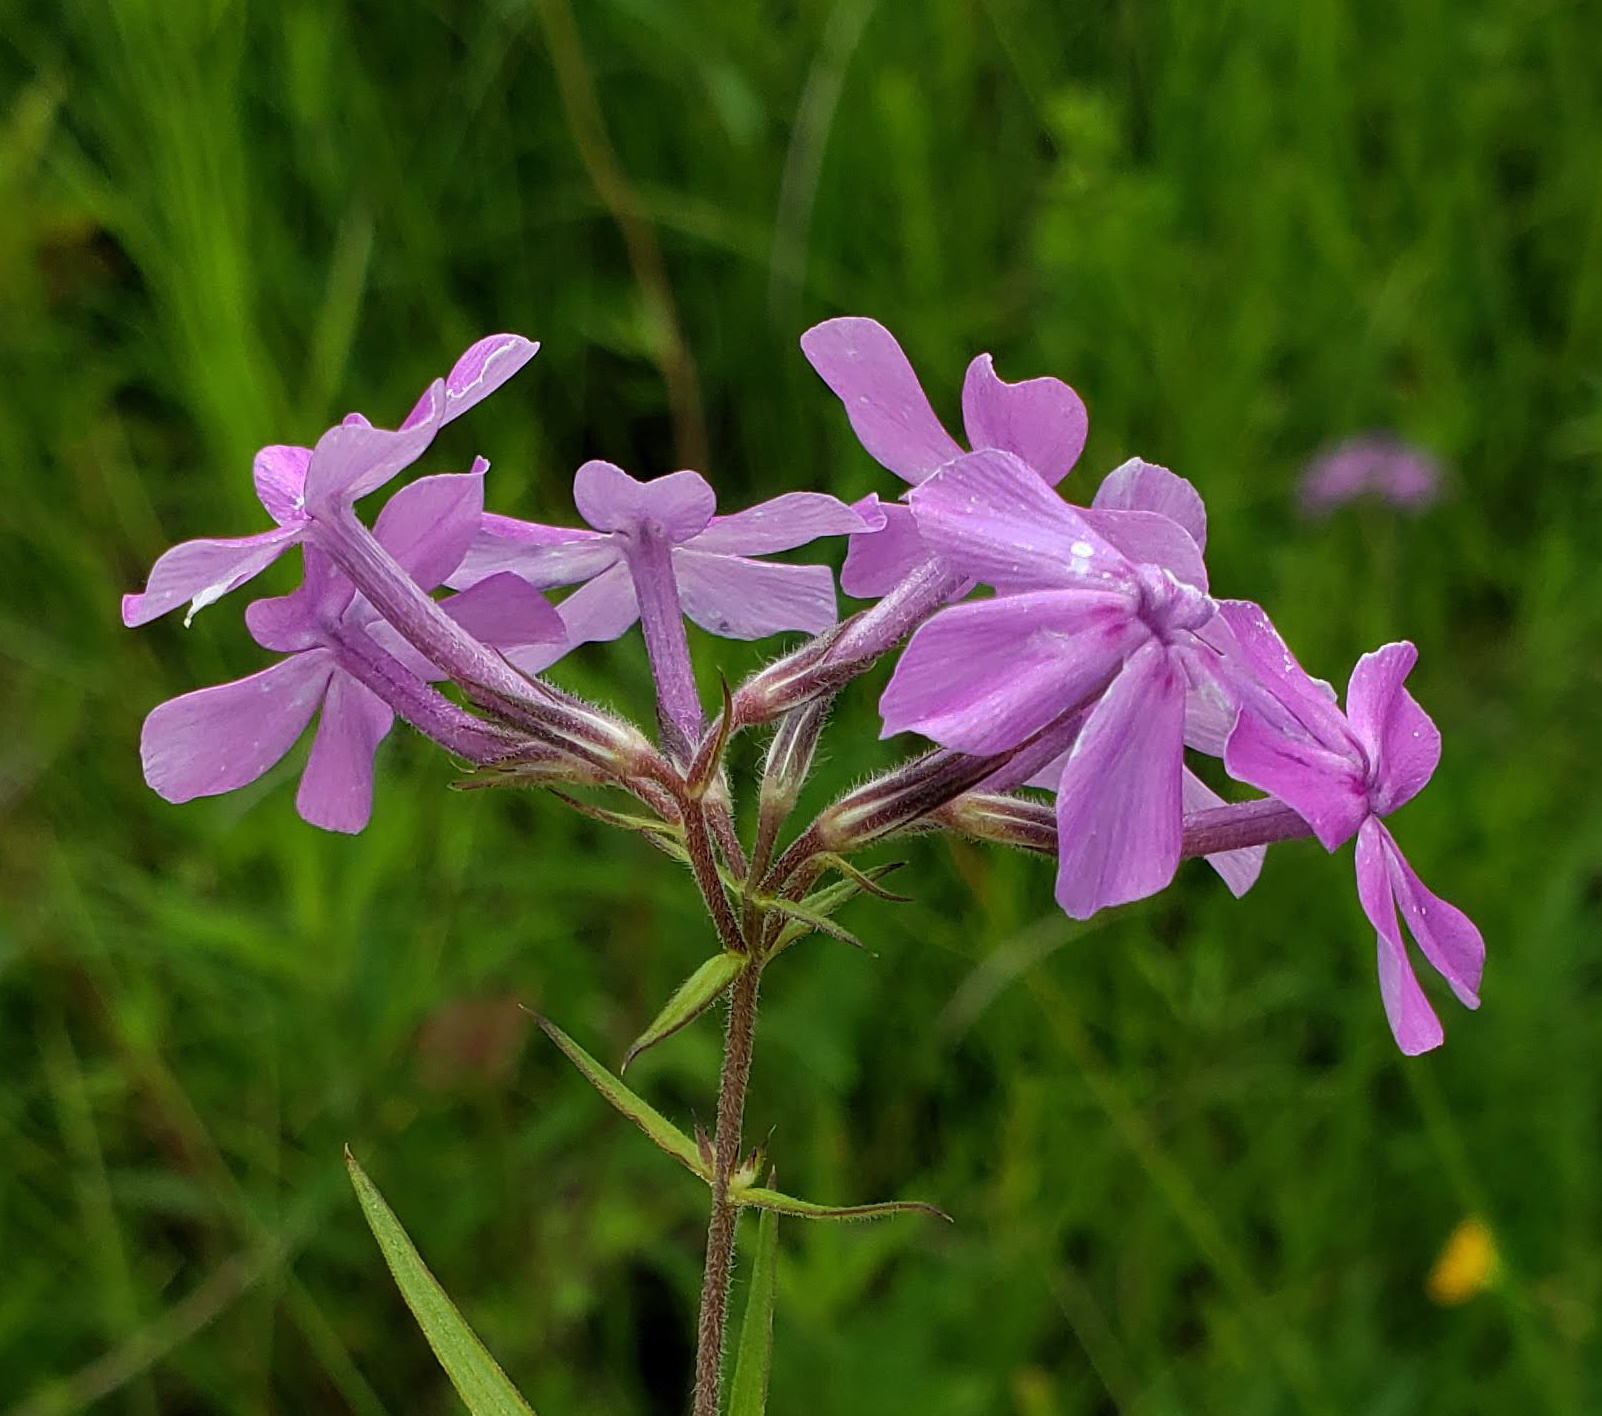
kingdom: Plantae
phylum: Tracheophyta
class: Magnoliopsida
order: Ericales
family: Polemoniaceae
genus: Phlox
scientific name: Phlox pilosa
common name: Prairie phlox
